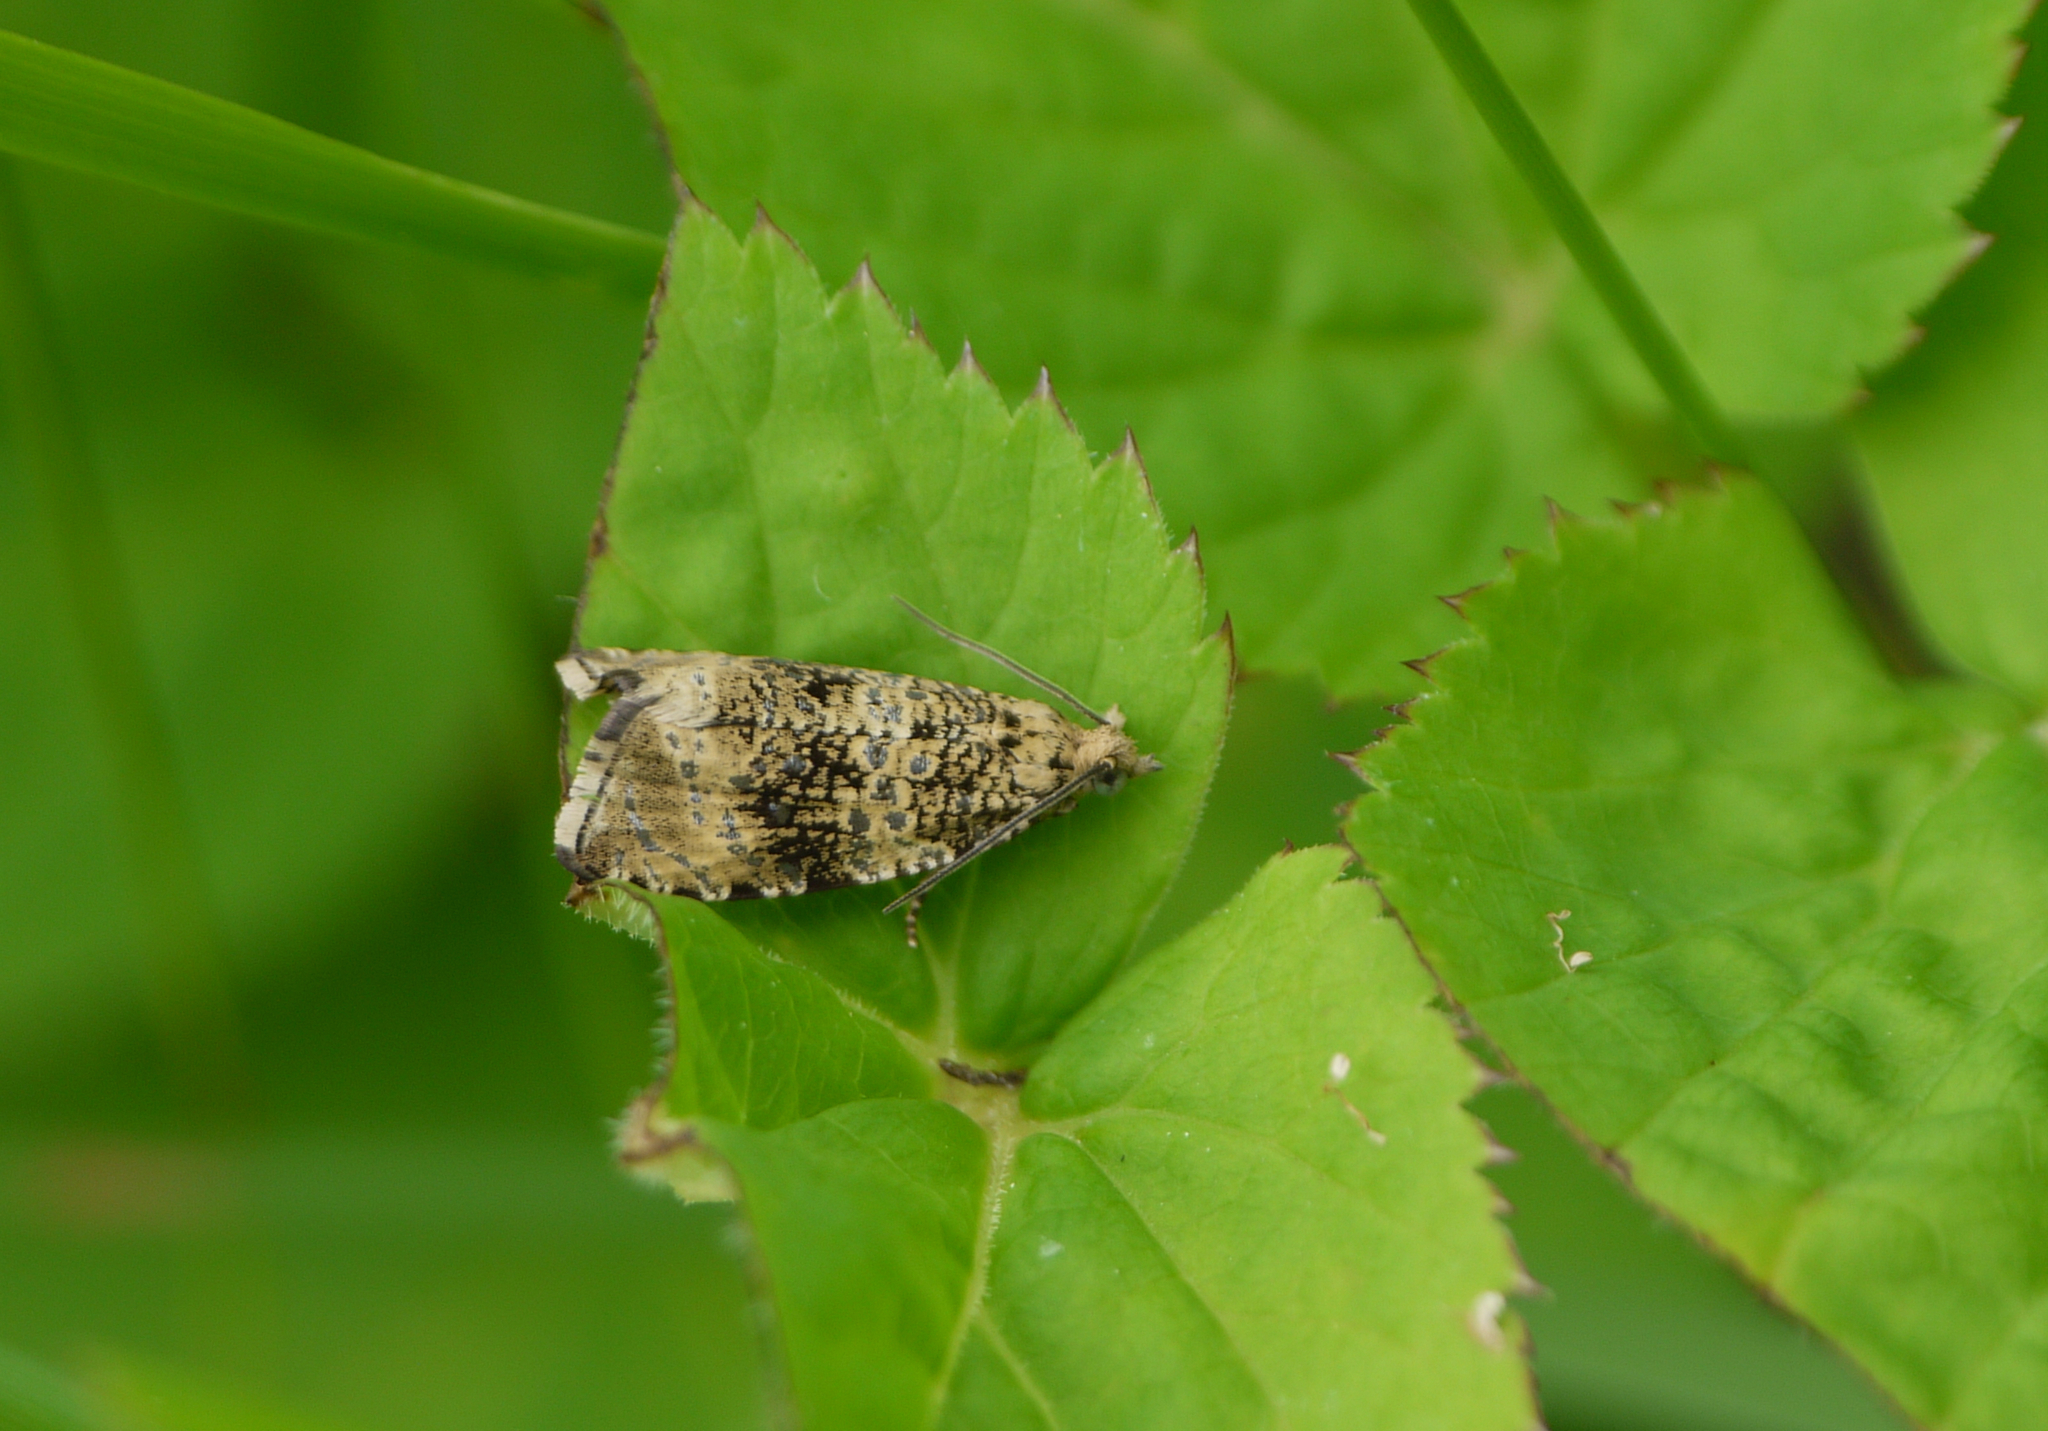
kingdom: Animalia
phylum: Arthropoda
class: Insecta
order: Lepidoptera
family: Tortricidae
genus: Syricoris
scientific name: Syricoris lacunana
